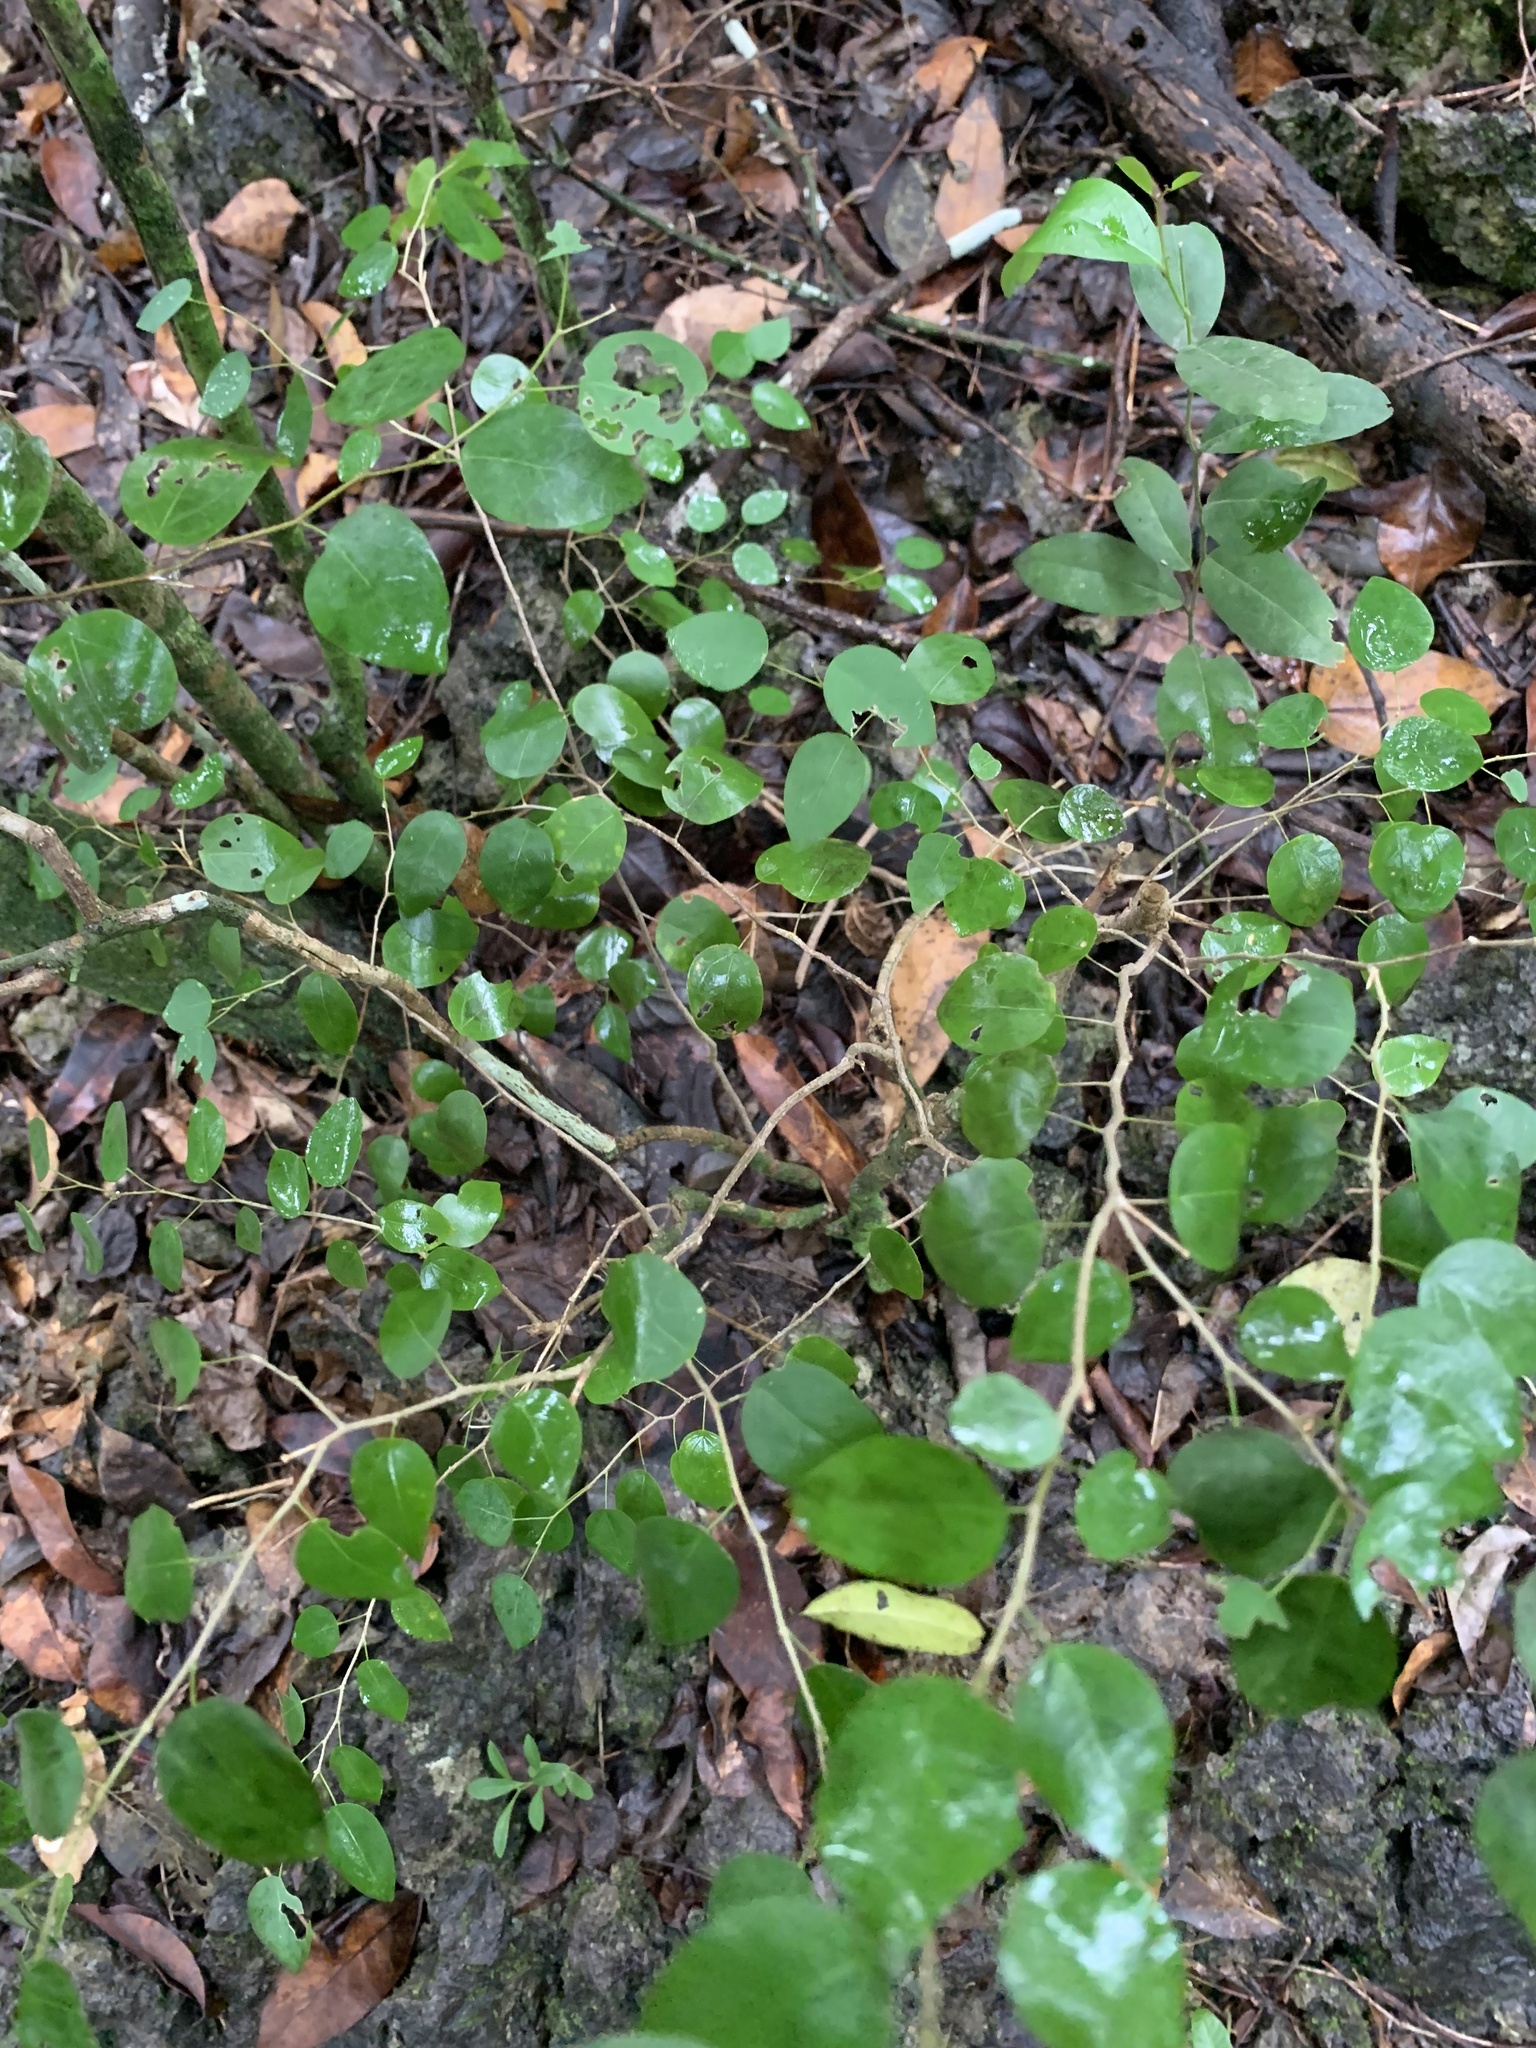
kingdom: Plantae
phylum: Tracheophyta
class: Magnoliopsida
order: Malpighiales
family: Phyllanthaceae
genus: Chascotheca
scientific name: Chascotheca neopeltandra
